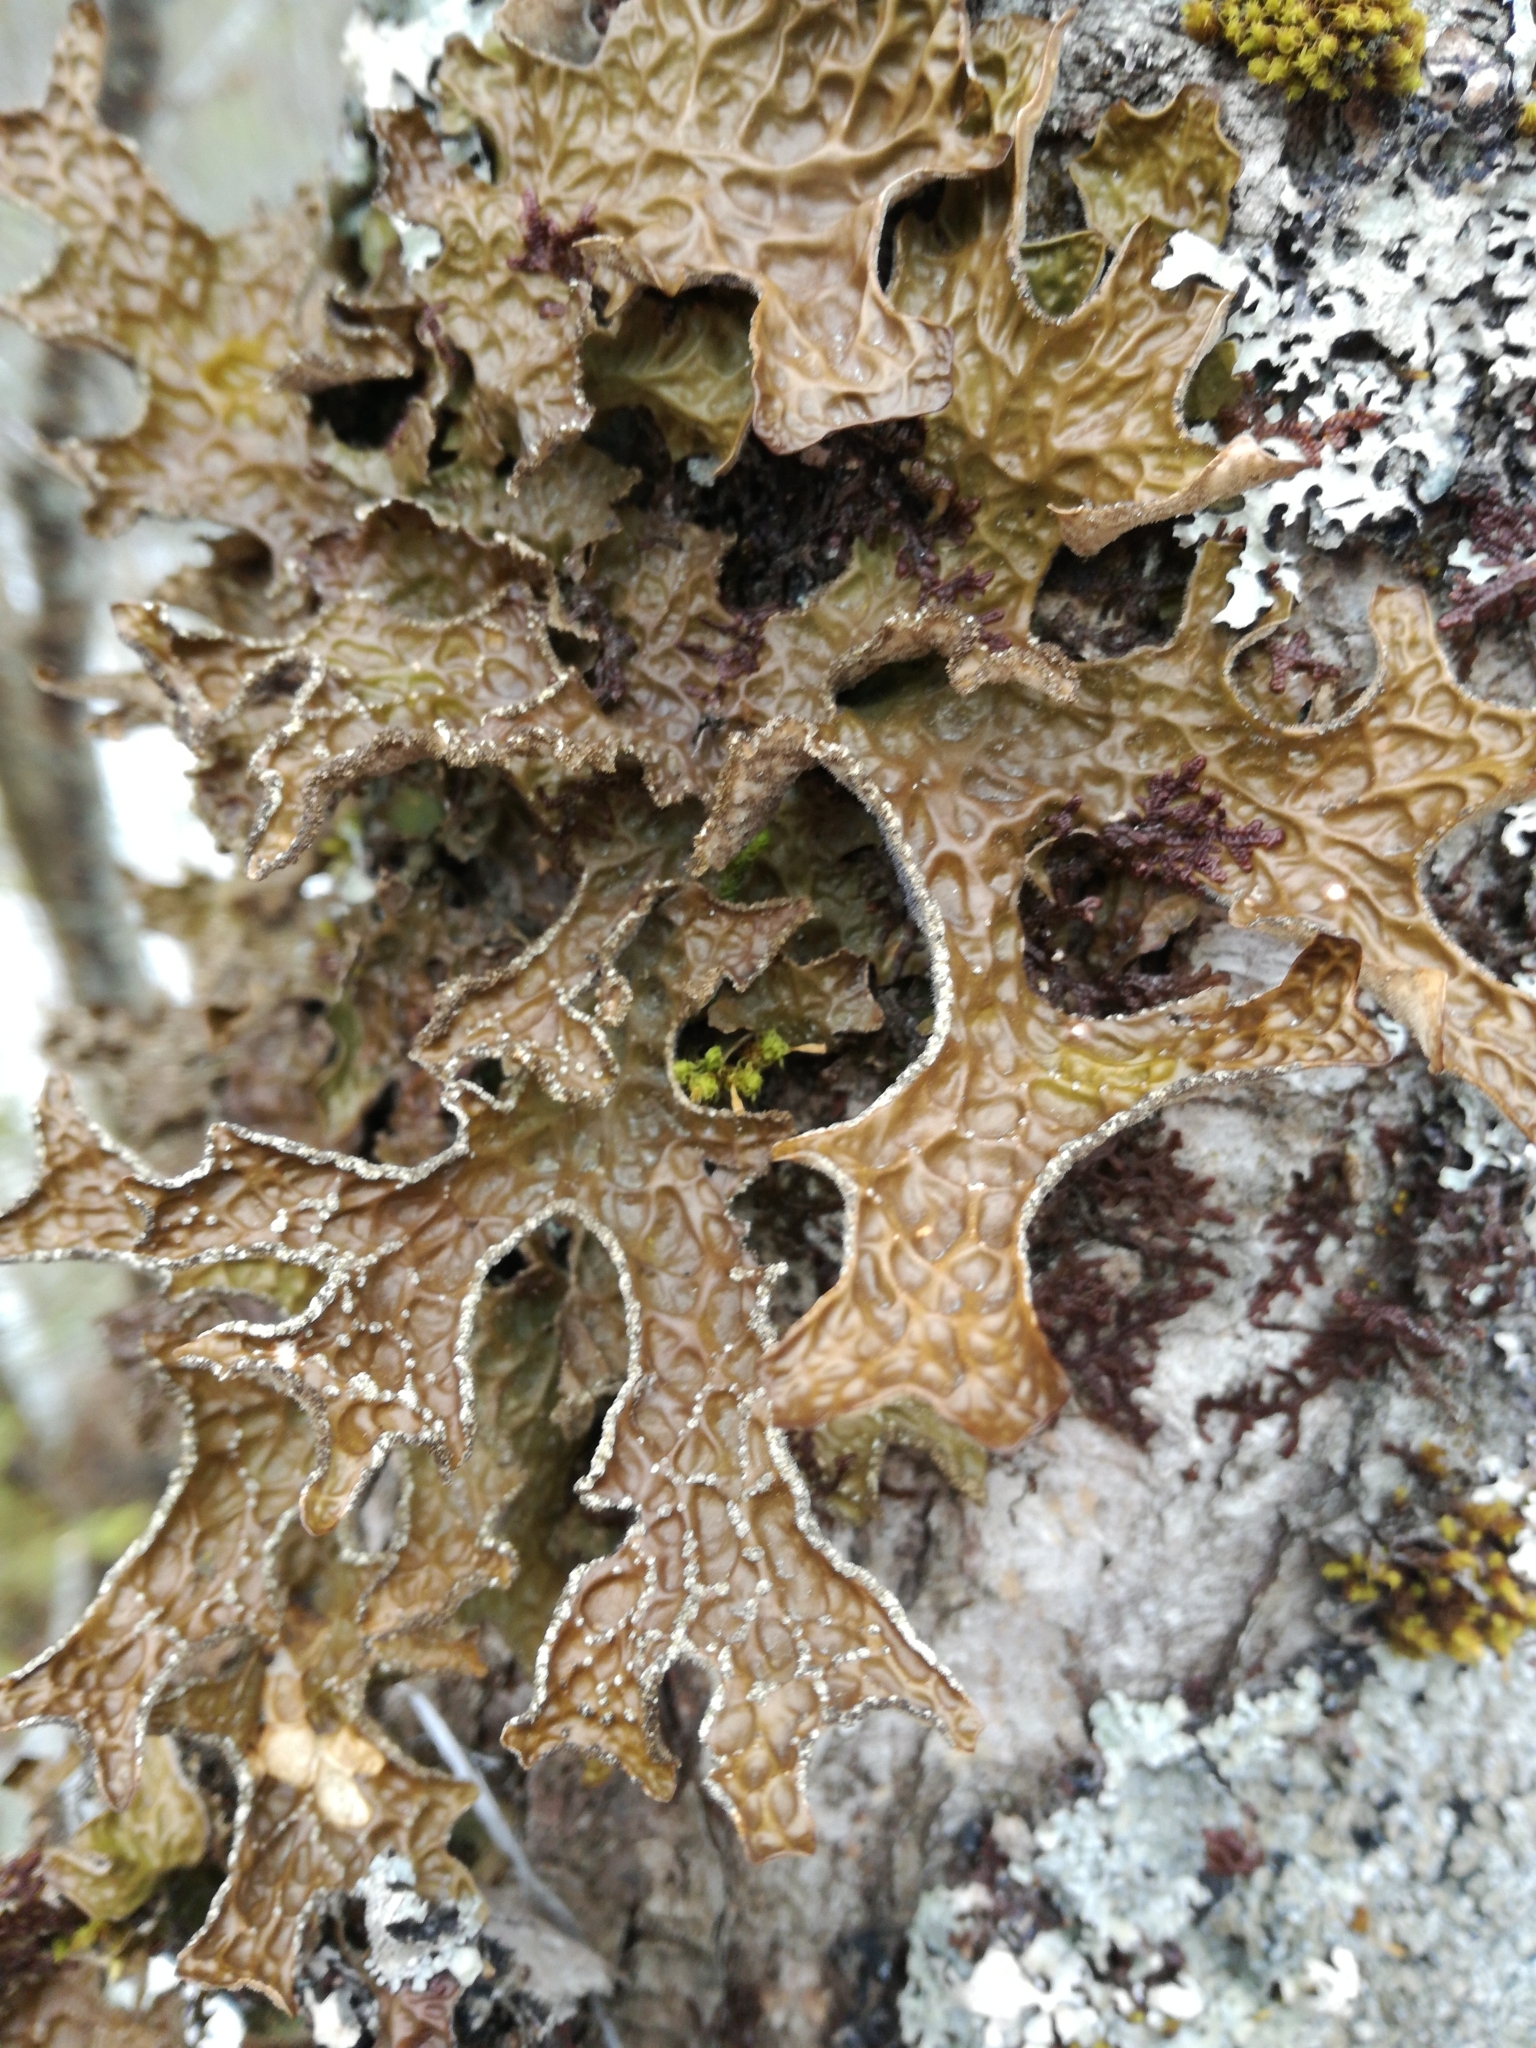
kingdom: Fungi
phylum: Ascomycota
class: Lecanoromycetes
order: Peltigerales
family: Lobariaceae
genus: Lobaria
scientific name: Lobaria pulmonaria
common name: Lungwort
